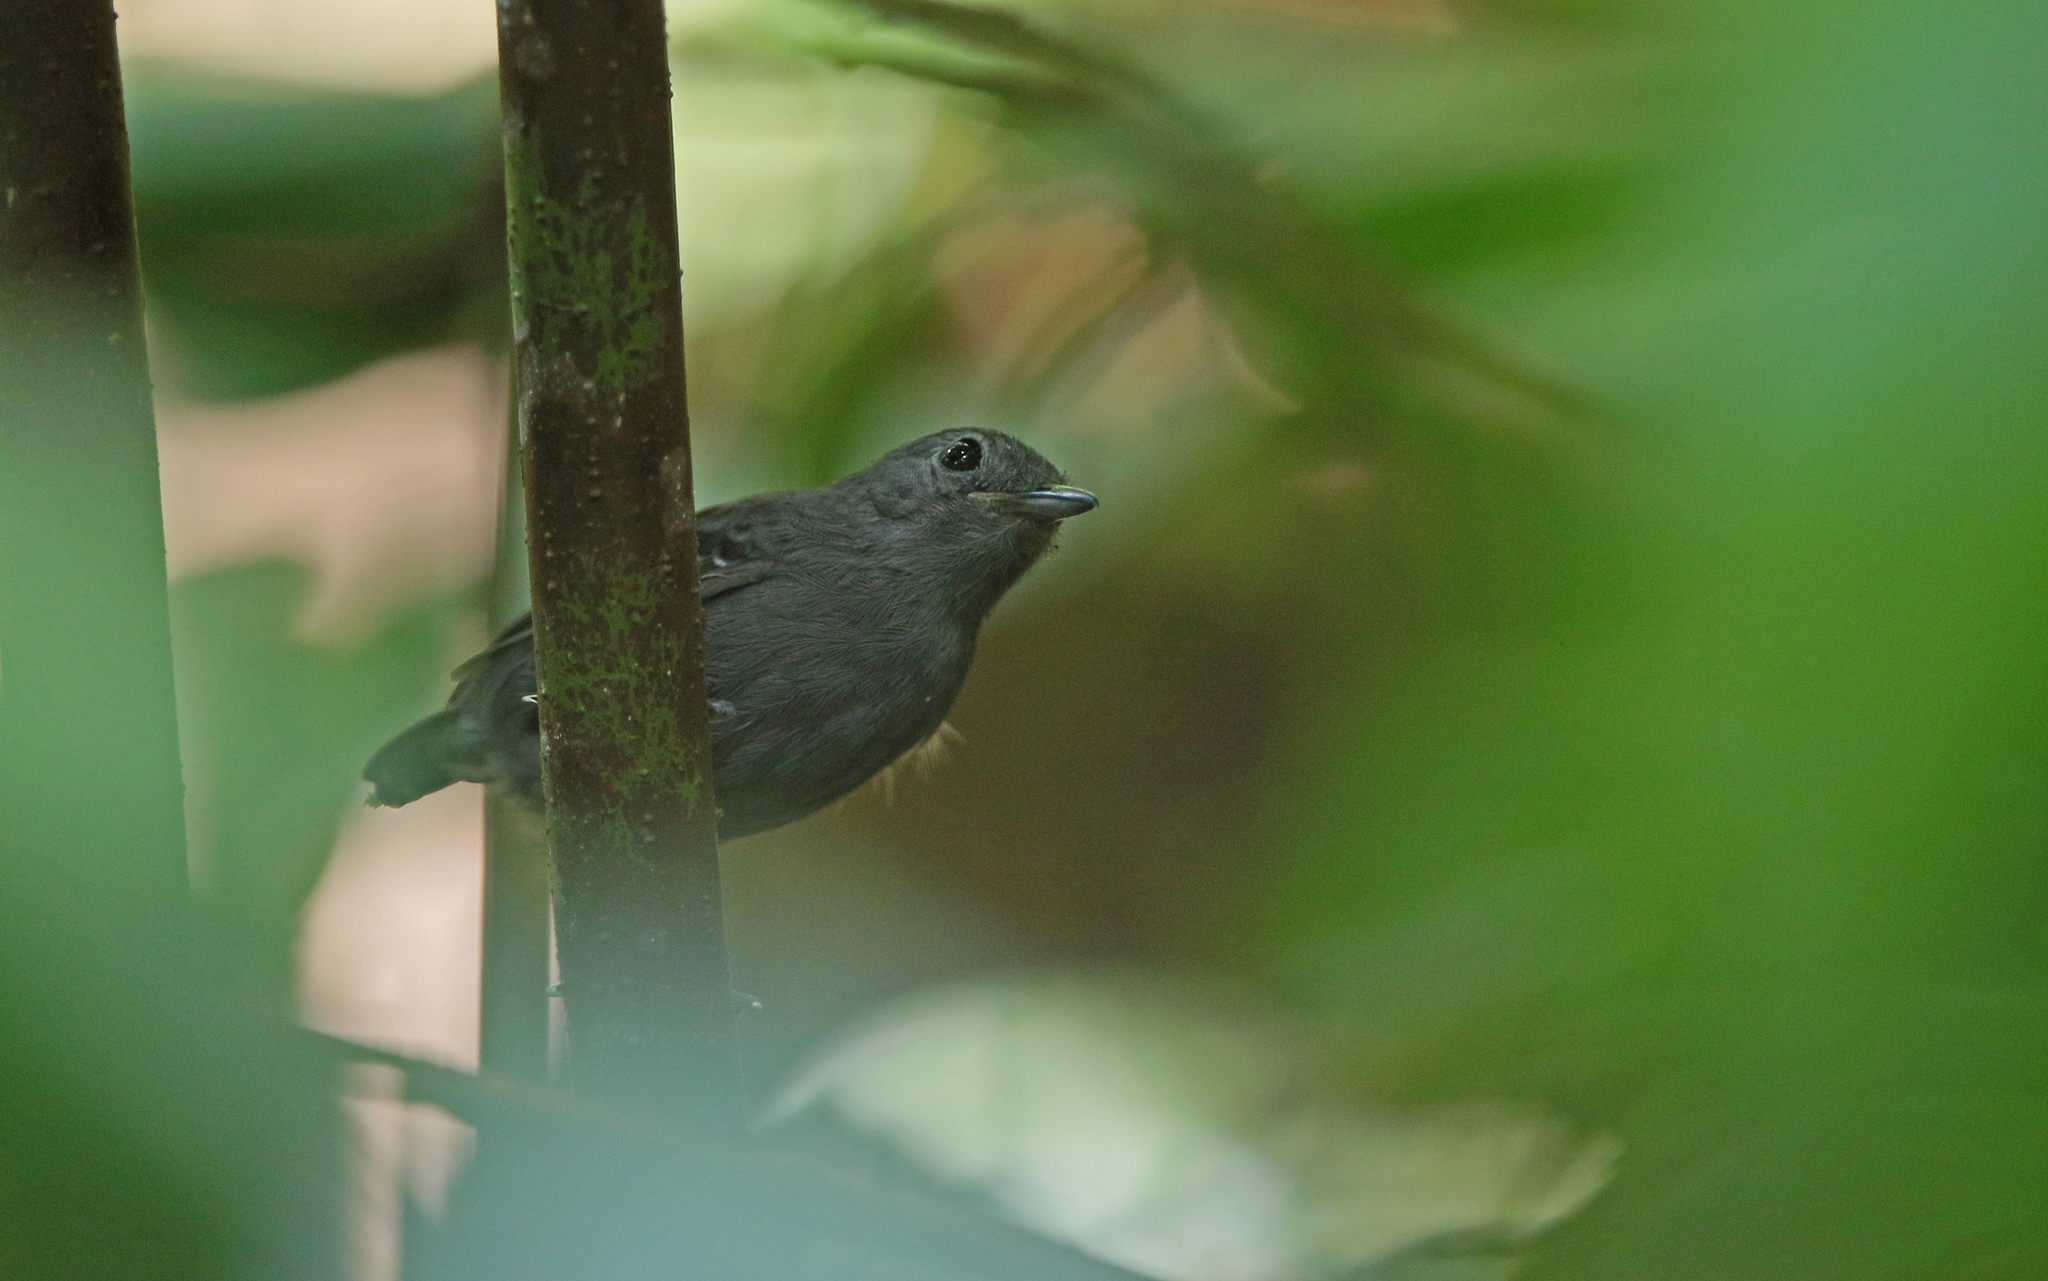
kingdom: Animalia
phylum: Chordata
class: Aves
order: Passeriformes
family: Thamnophilidae
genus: Willisornis
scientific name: Willisornis poecilinotus
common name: Common scale-backed antbird
